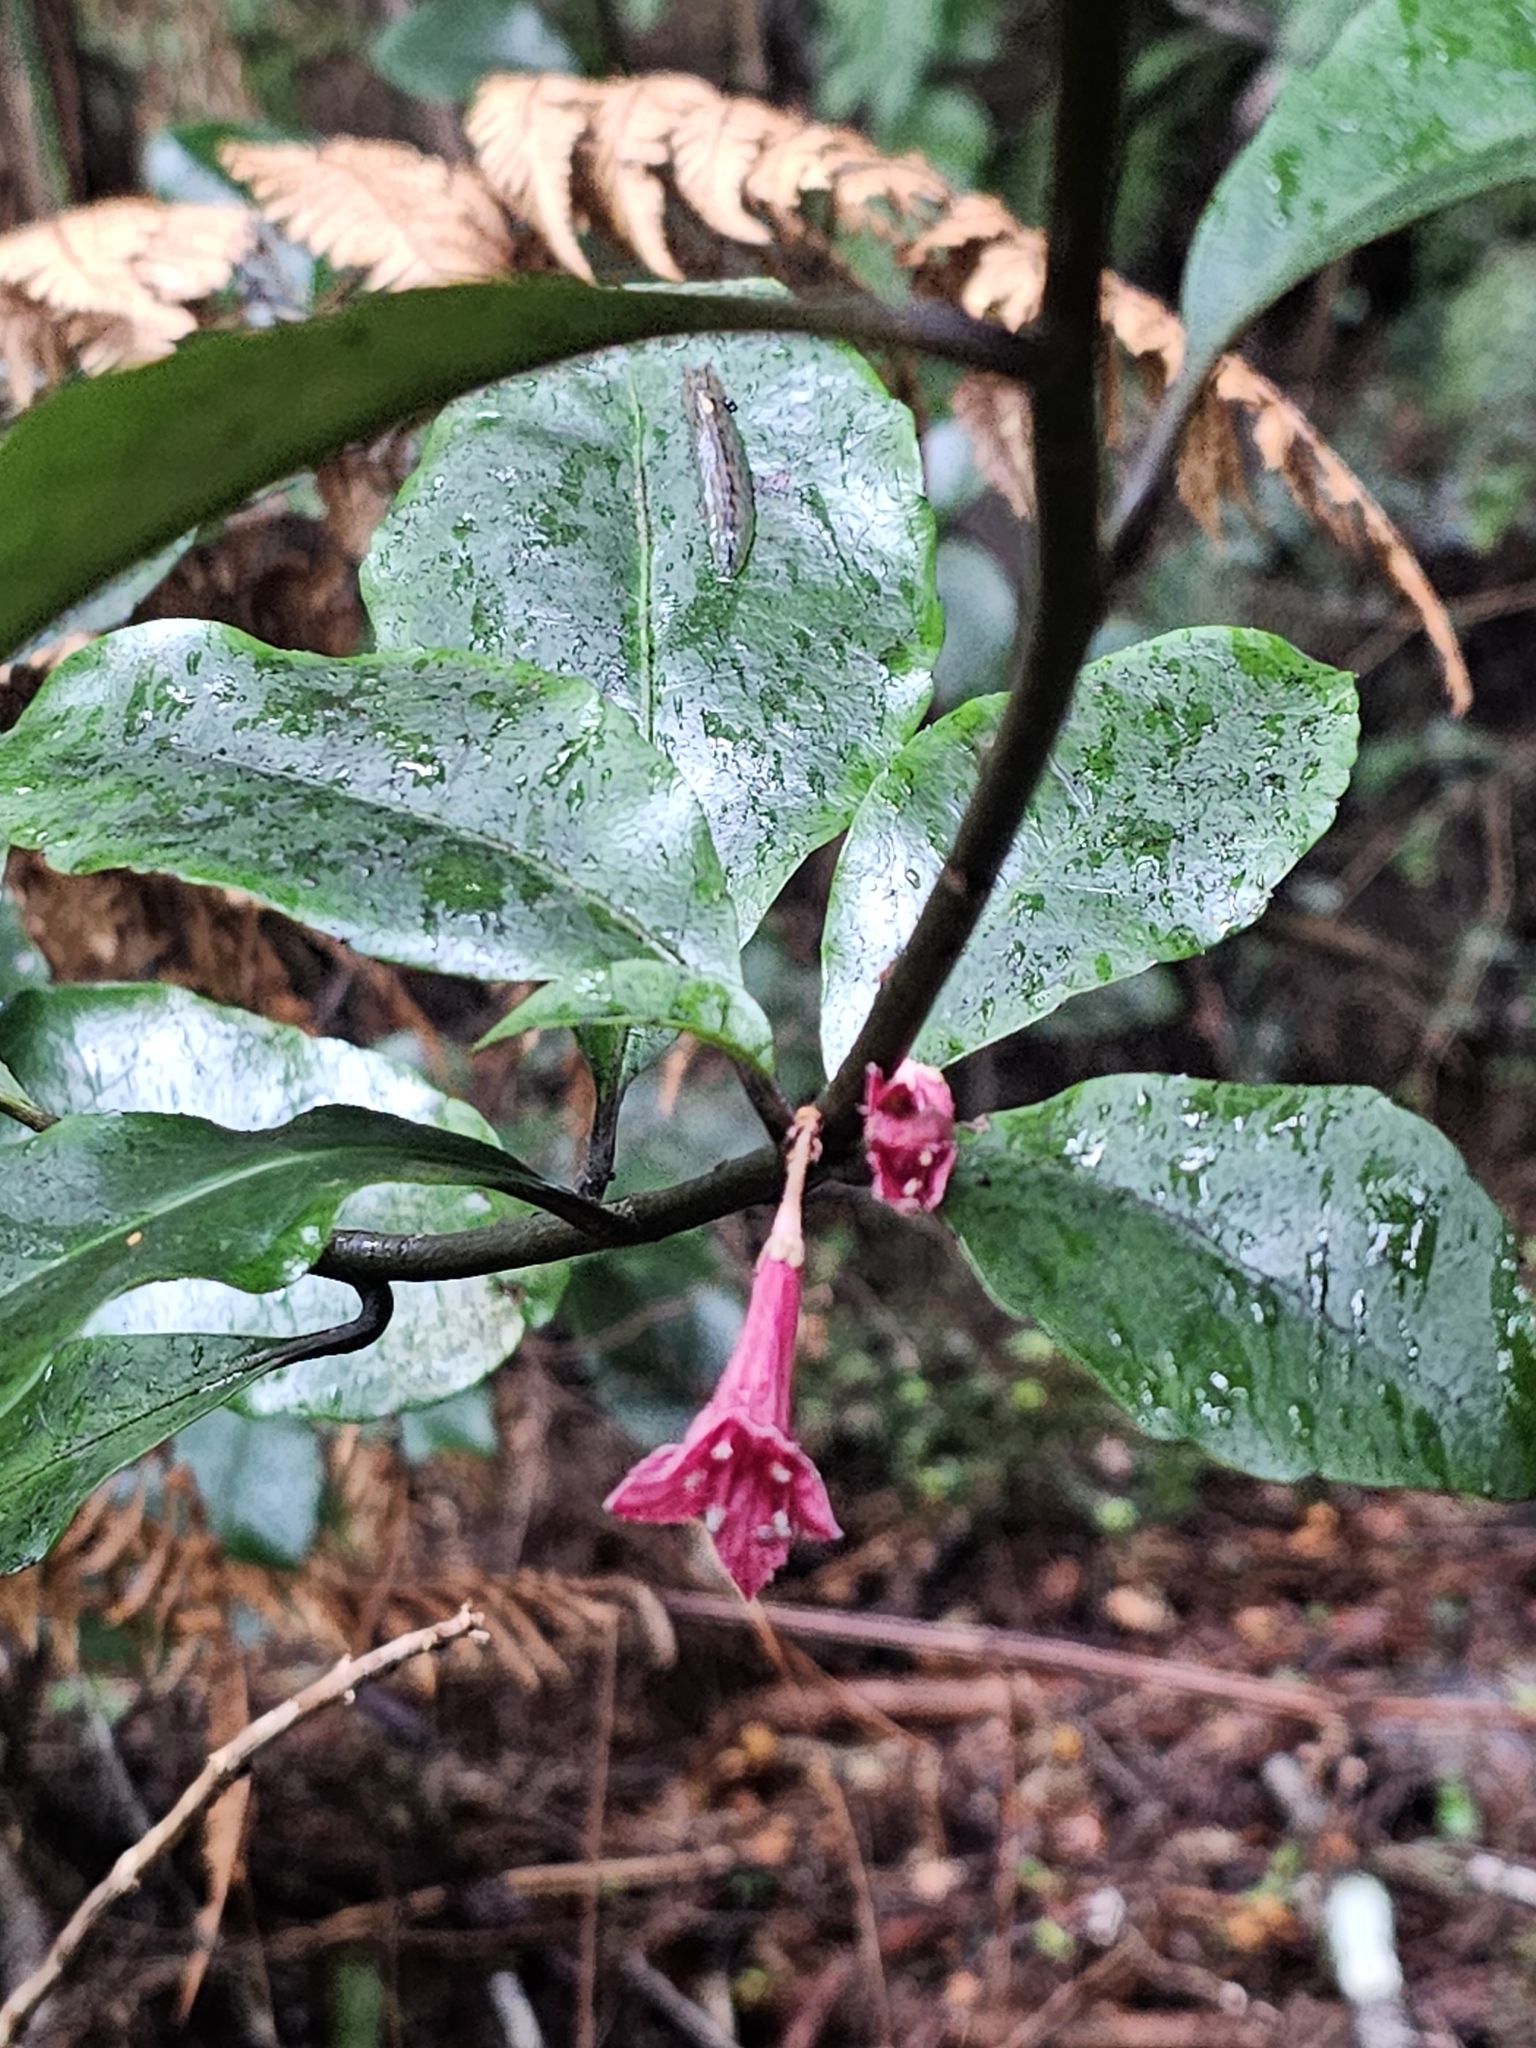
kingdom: Plantae
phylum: Tracheophyta
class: Magnoliopsida
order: Asterales
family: Alseuosmiaceae
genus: Alseuosmia
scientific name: Alseuosmia macrophylla
